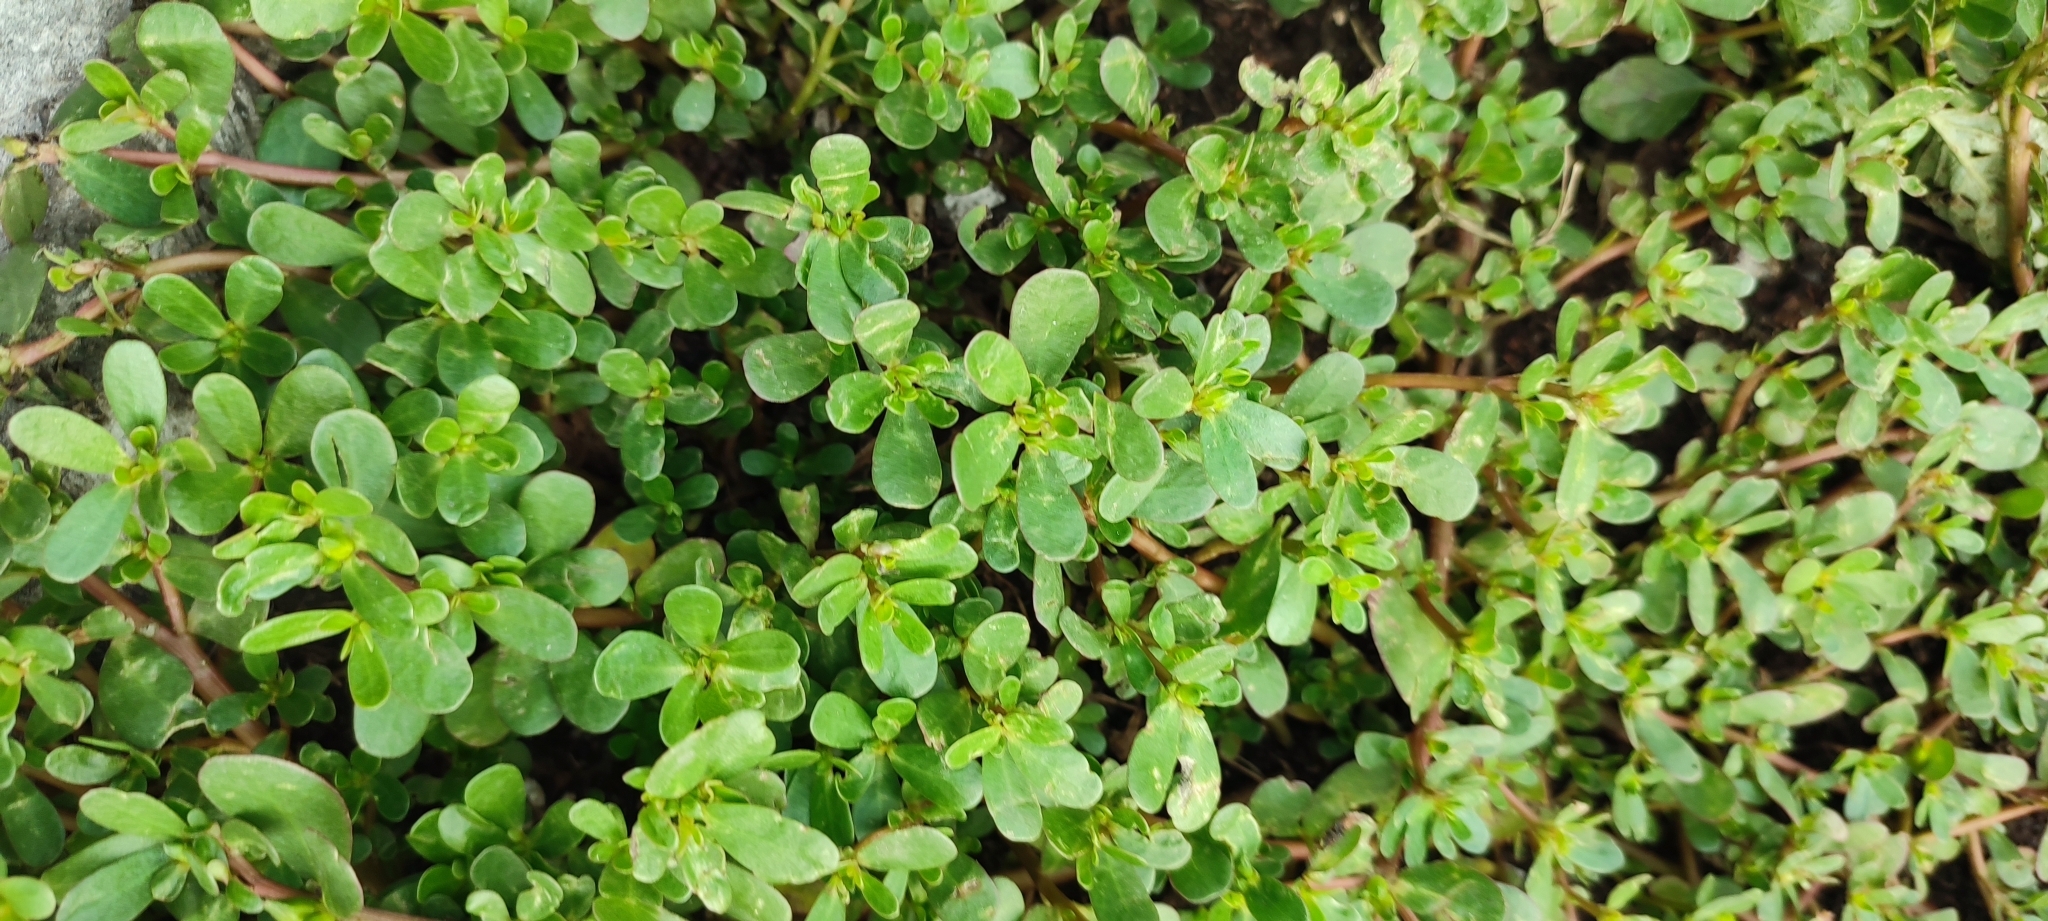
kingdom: Plantae
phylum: Tracheophyta
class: Magnoliopsida
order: Caryophyllales
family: Portulacaceae
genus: Portulaca
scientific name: Portulaca oleracea
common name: Common purslane
